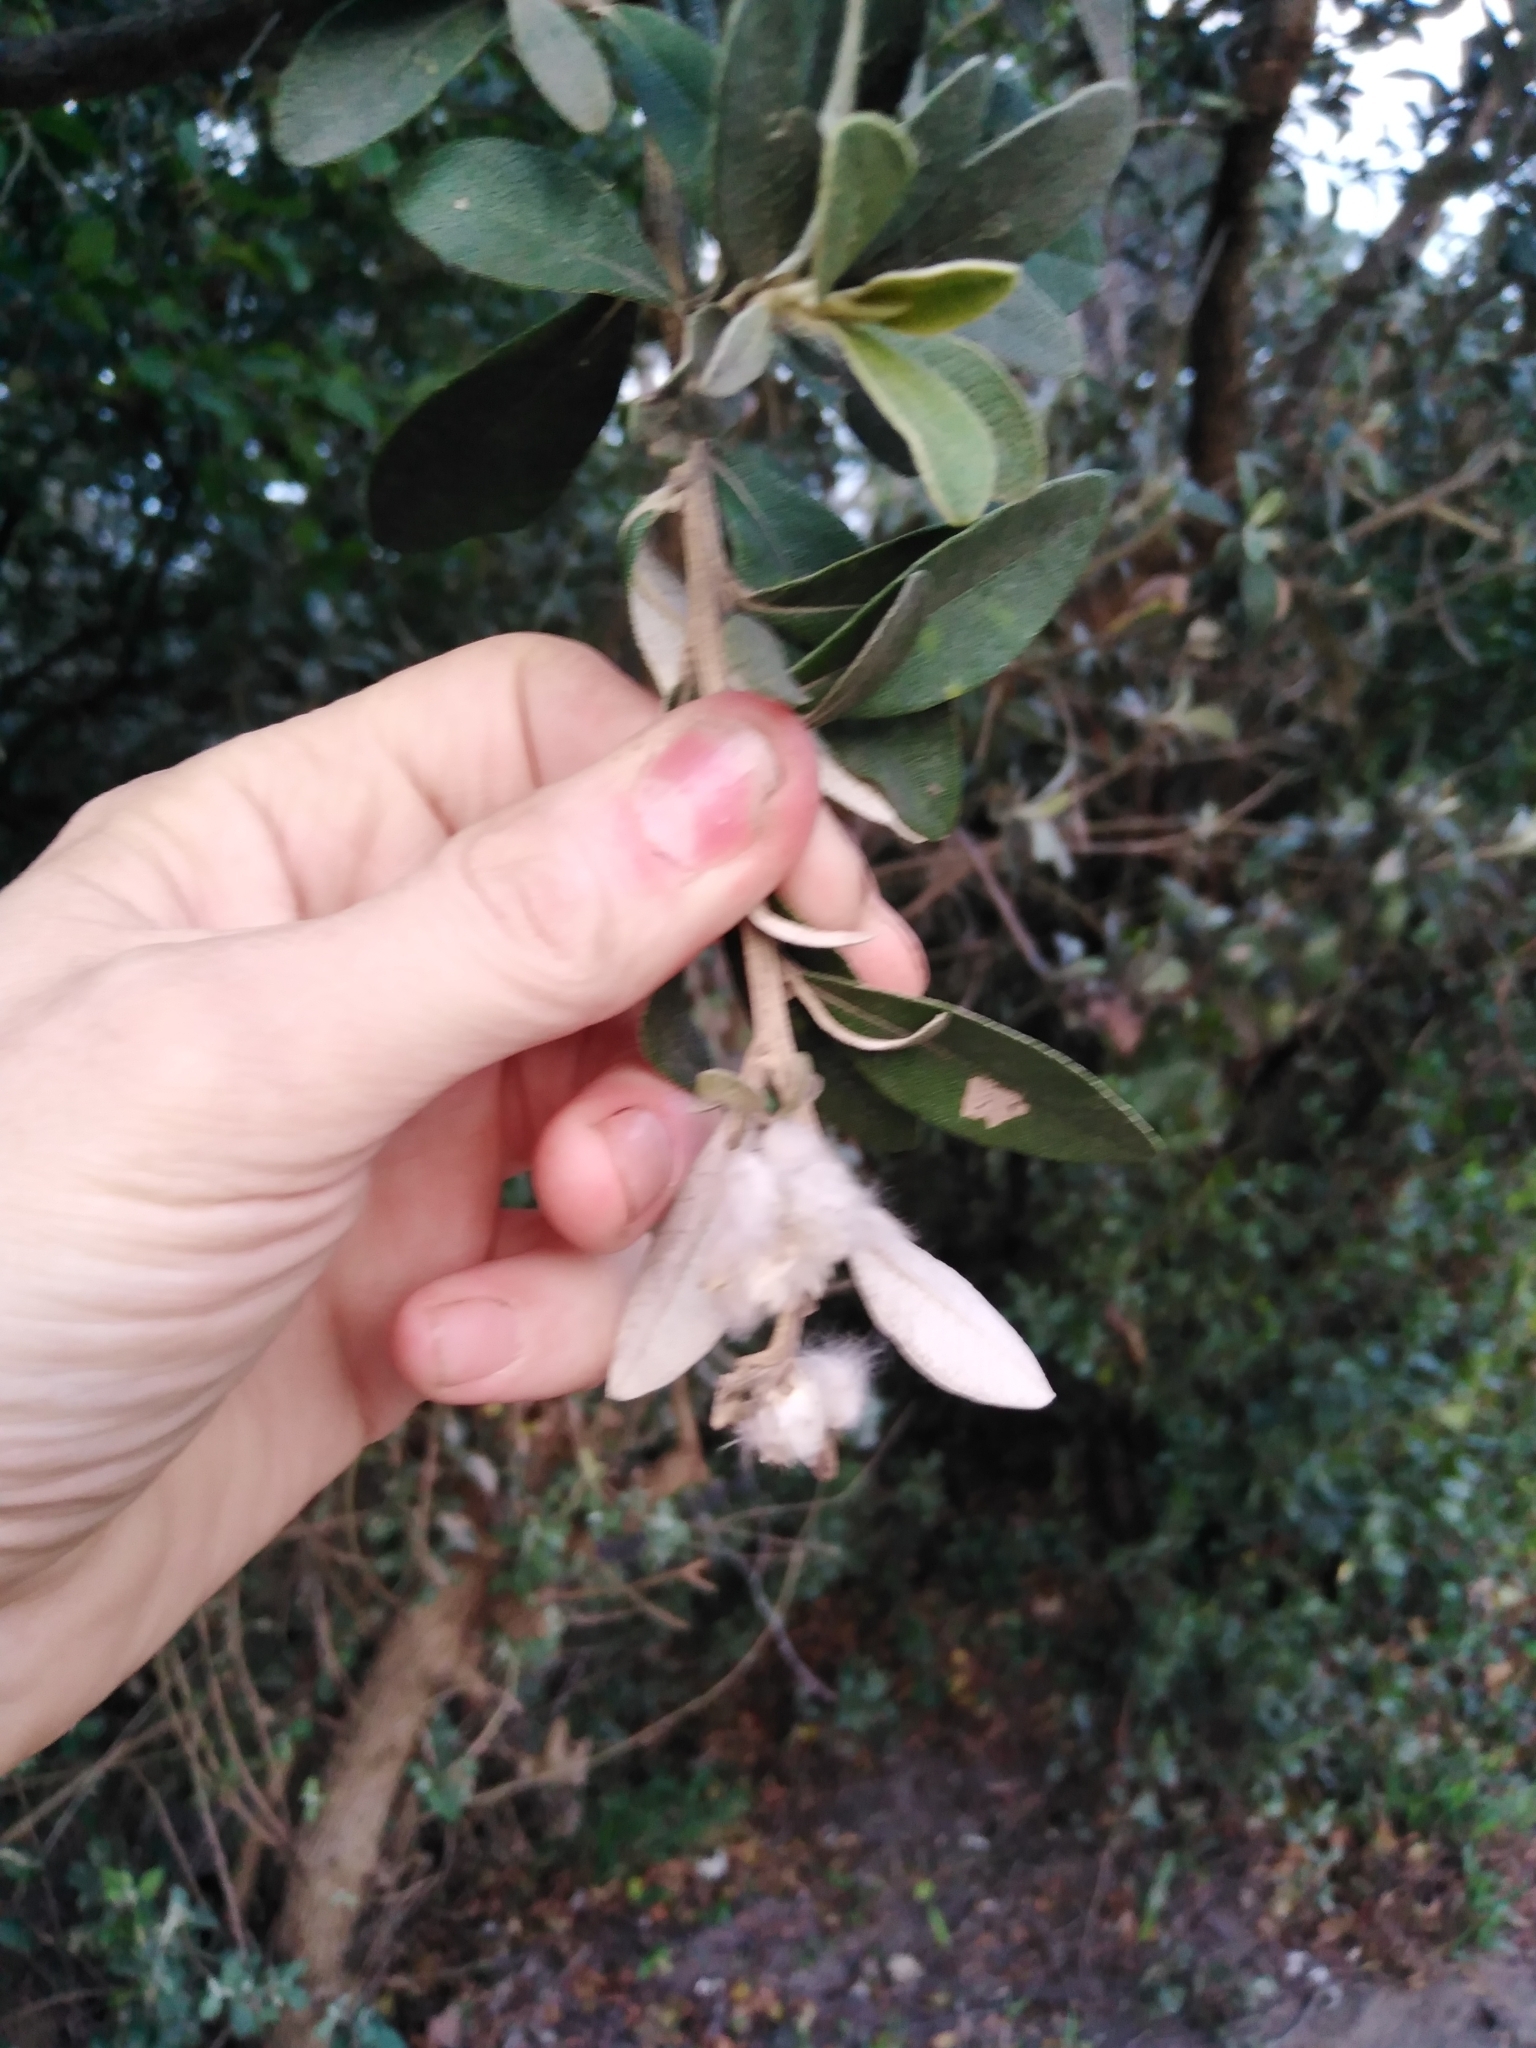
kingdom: Plantae
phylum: Tracheophyta
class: Magnoliopsida
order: Asterales
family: Asteraceae
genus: Tarchonanthus
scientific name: Tarchonanthus littoralis
